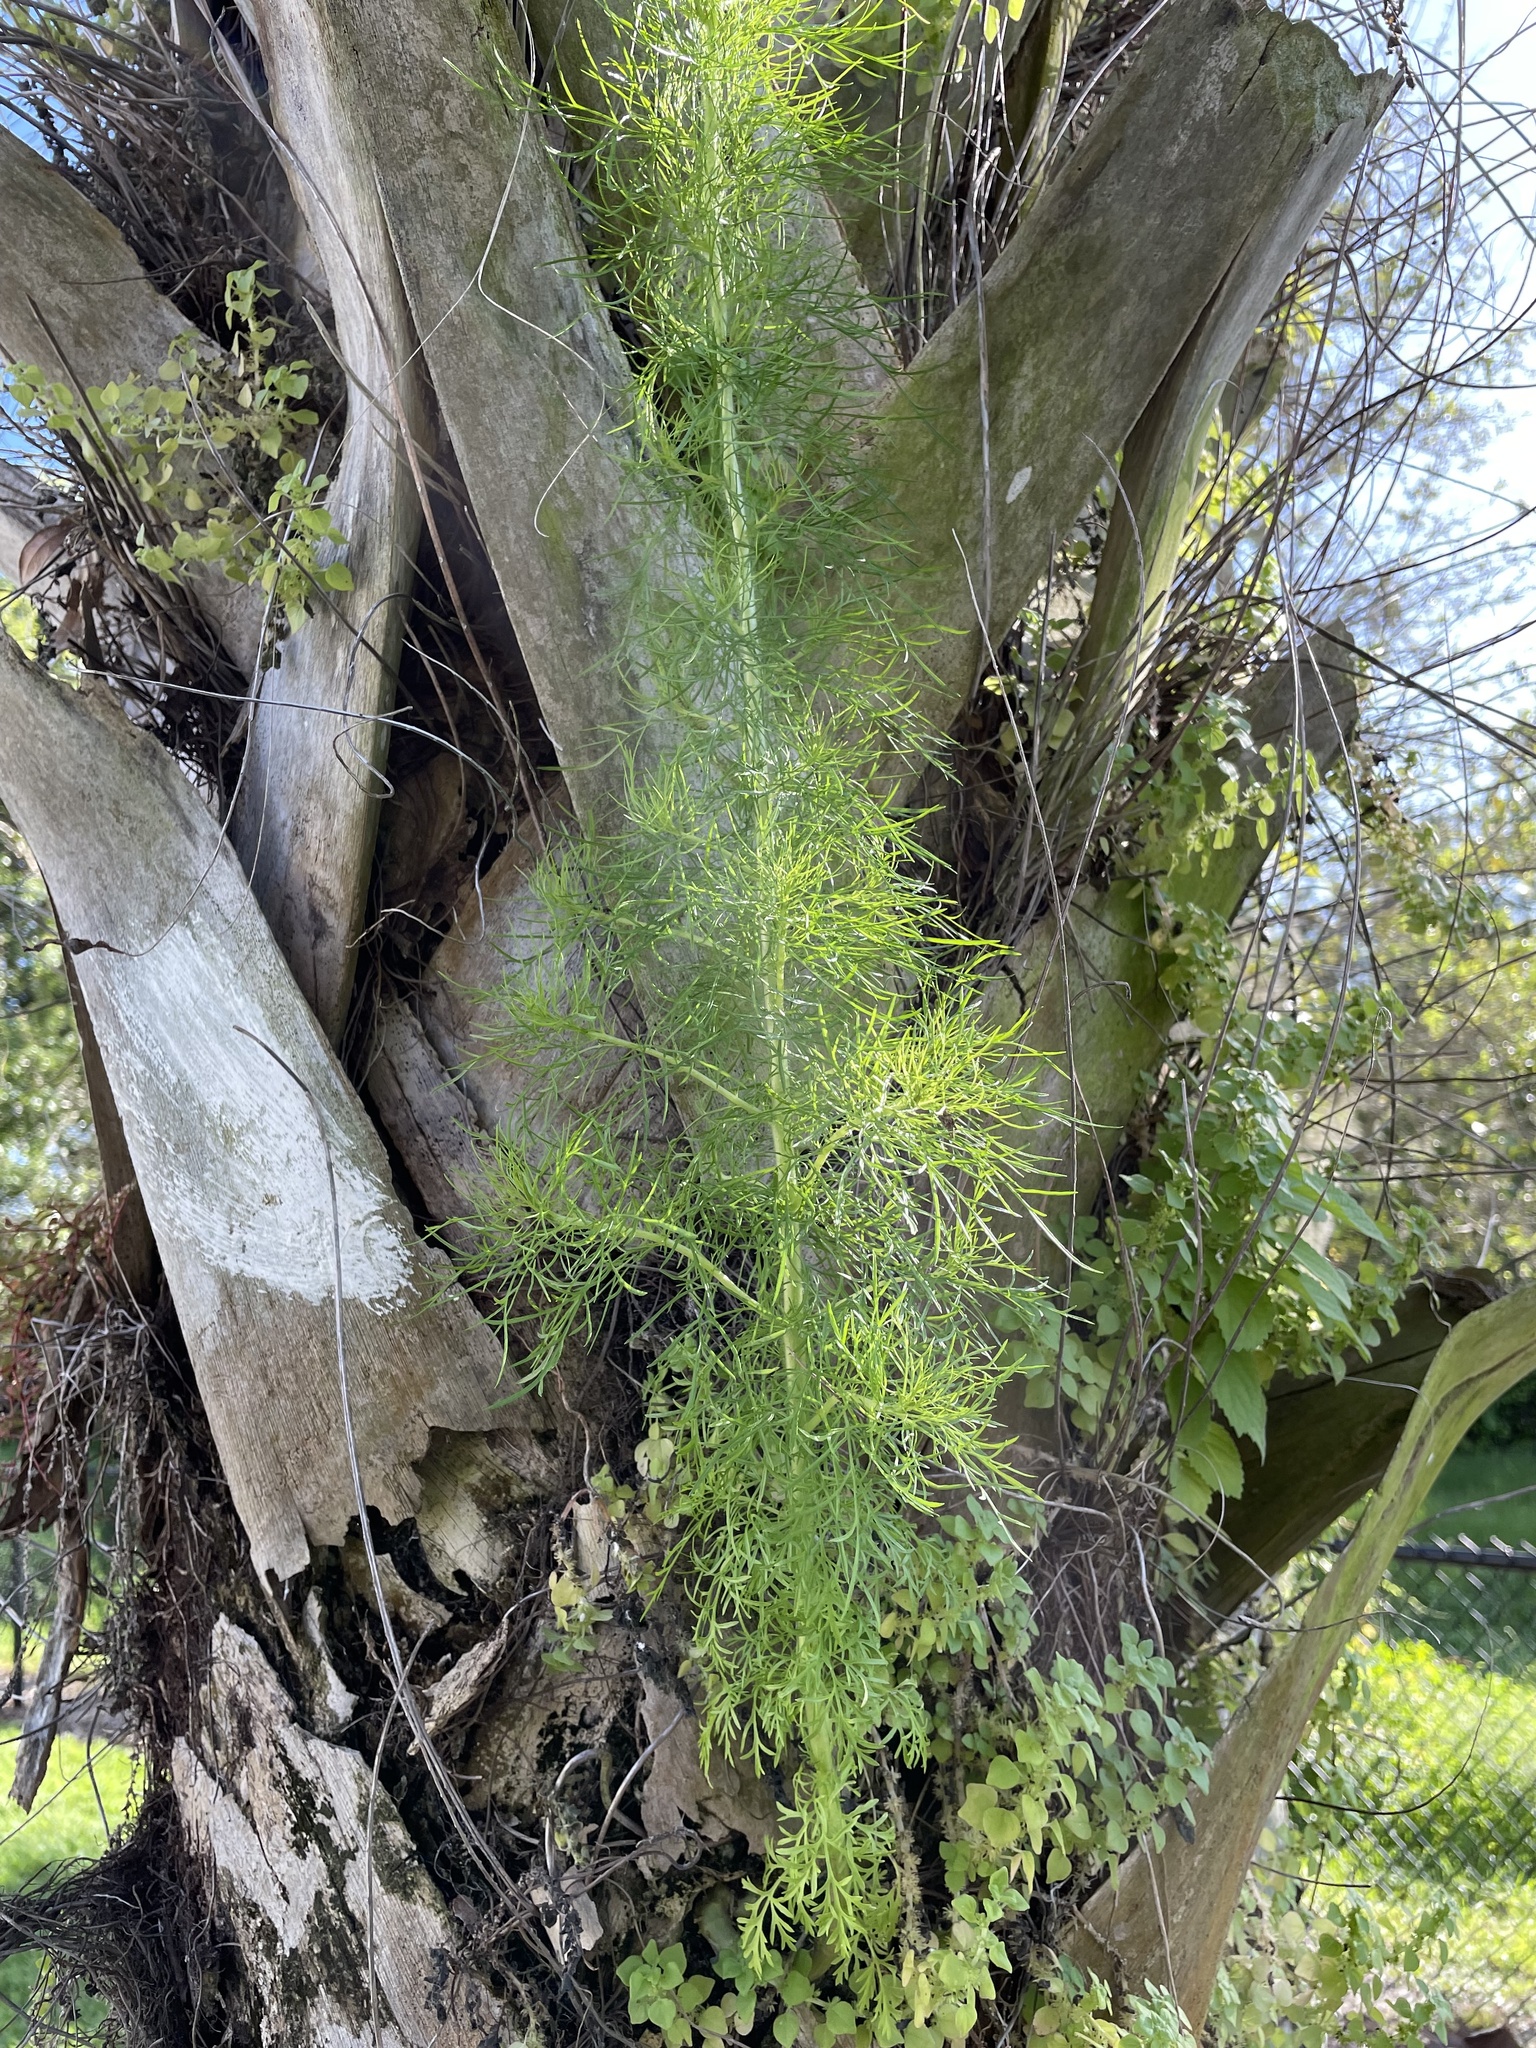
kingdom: Plantae
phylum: Tracheophyta
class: Magnoliopsida
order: Asterales
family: Asteraceae
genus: Eupatorium
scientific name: Eupatorium capillifolium
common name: Dog-fennel
